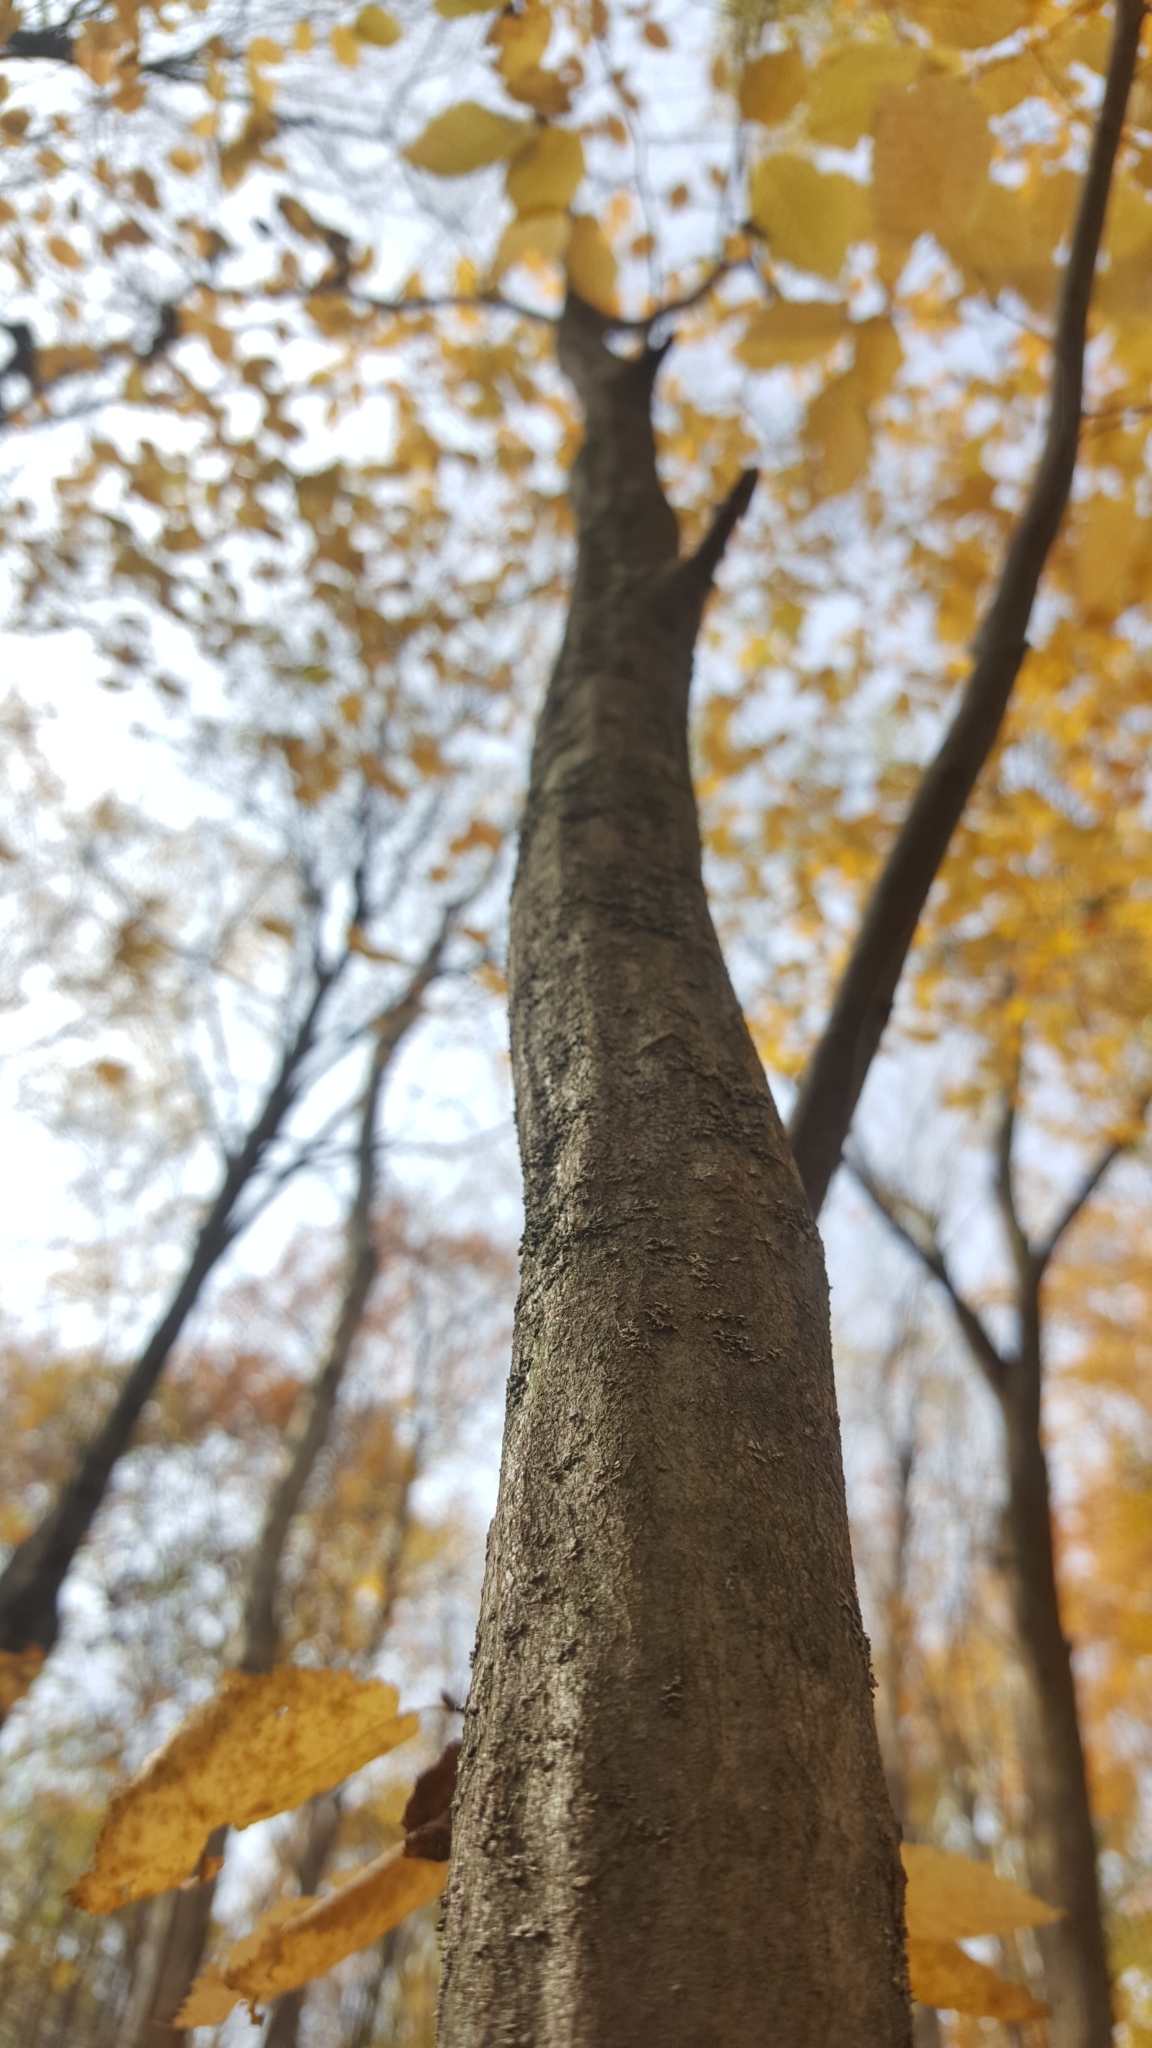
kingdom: Plantae
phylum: Tracheophyta
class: Magnoliopsida
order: Fagales
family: Betulaceae
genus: Carpinus
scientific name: Carpinus caroliniana
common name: American hornbeam
